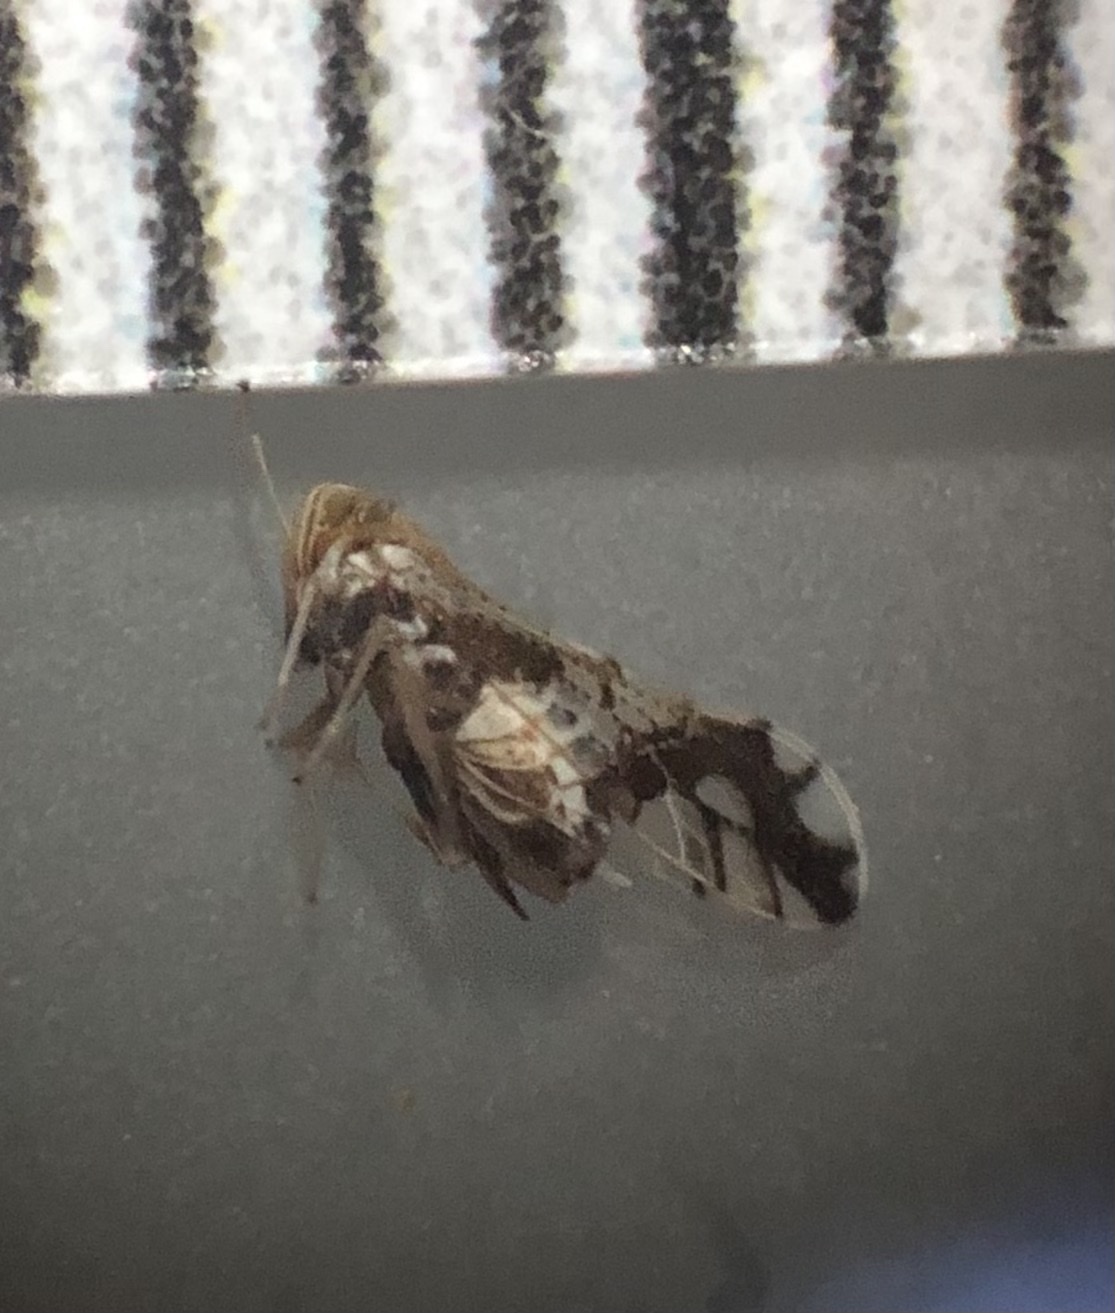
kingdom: Animalia
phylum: Arthropoda
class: Insecta
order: Hemiptera
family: Delphacidae
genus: Liburniella
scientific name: Liburniella ornata
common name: Ornate planthopper
